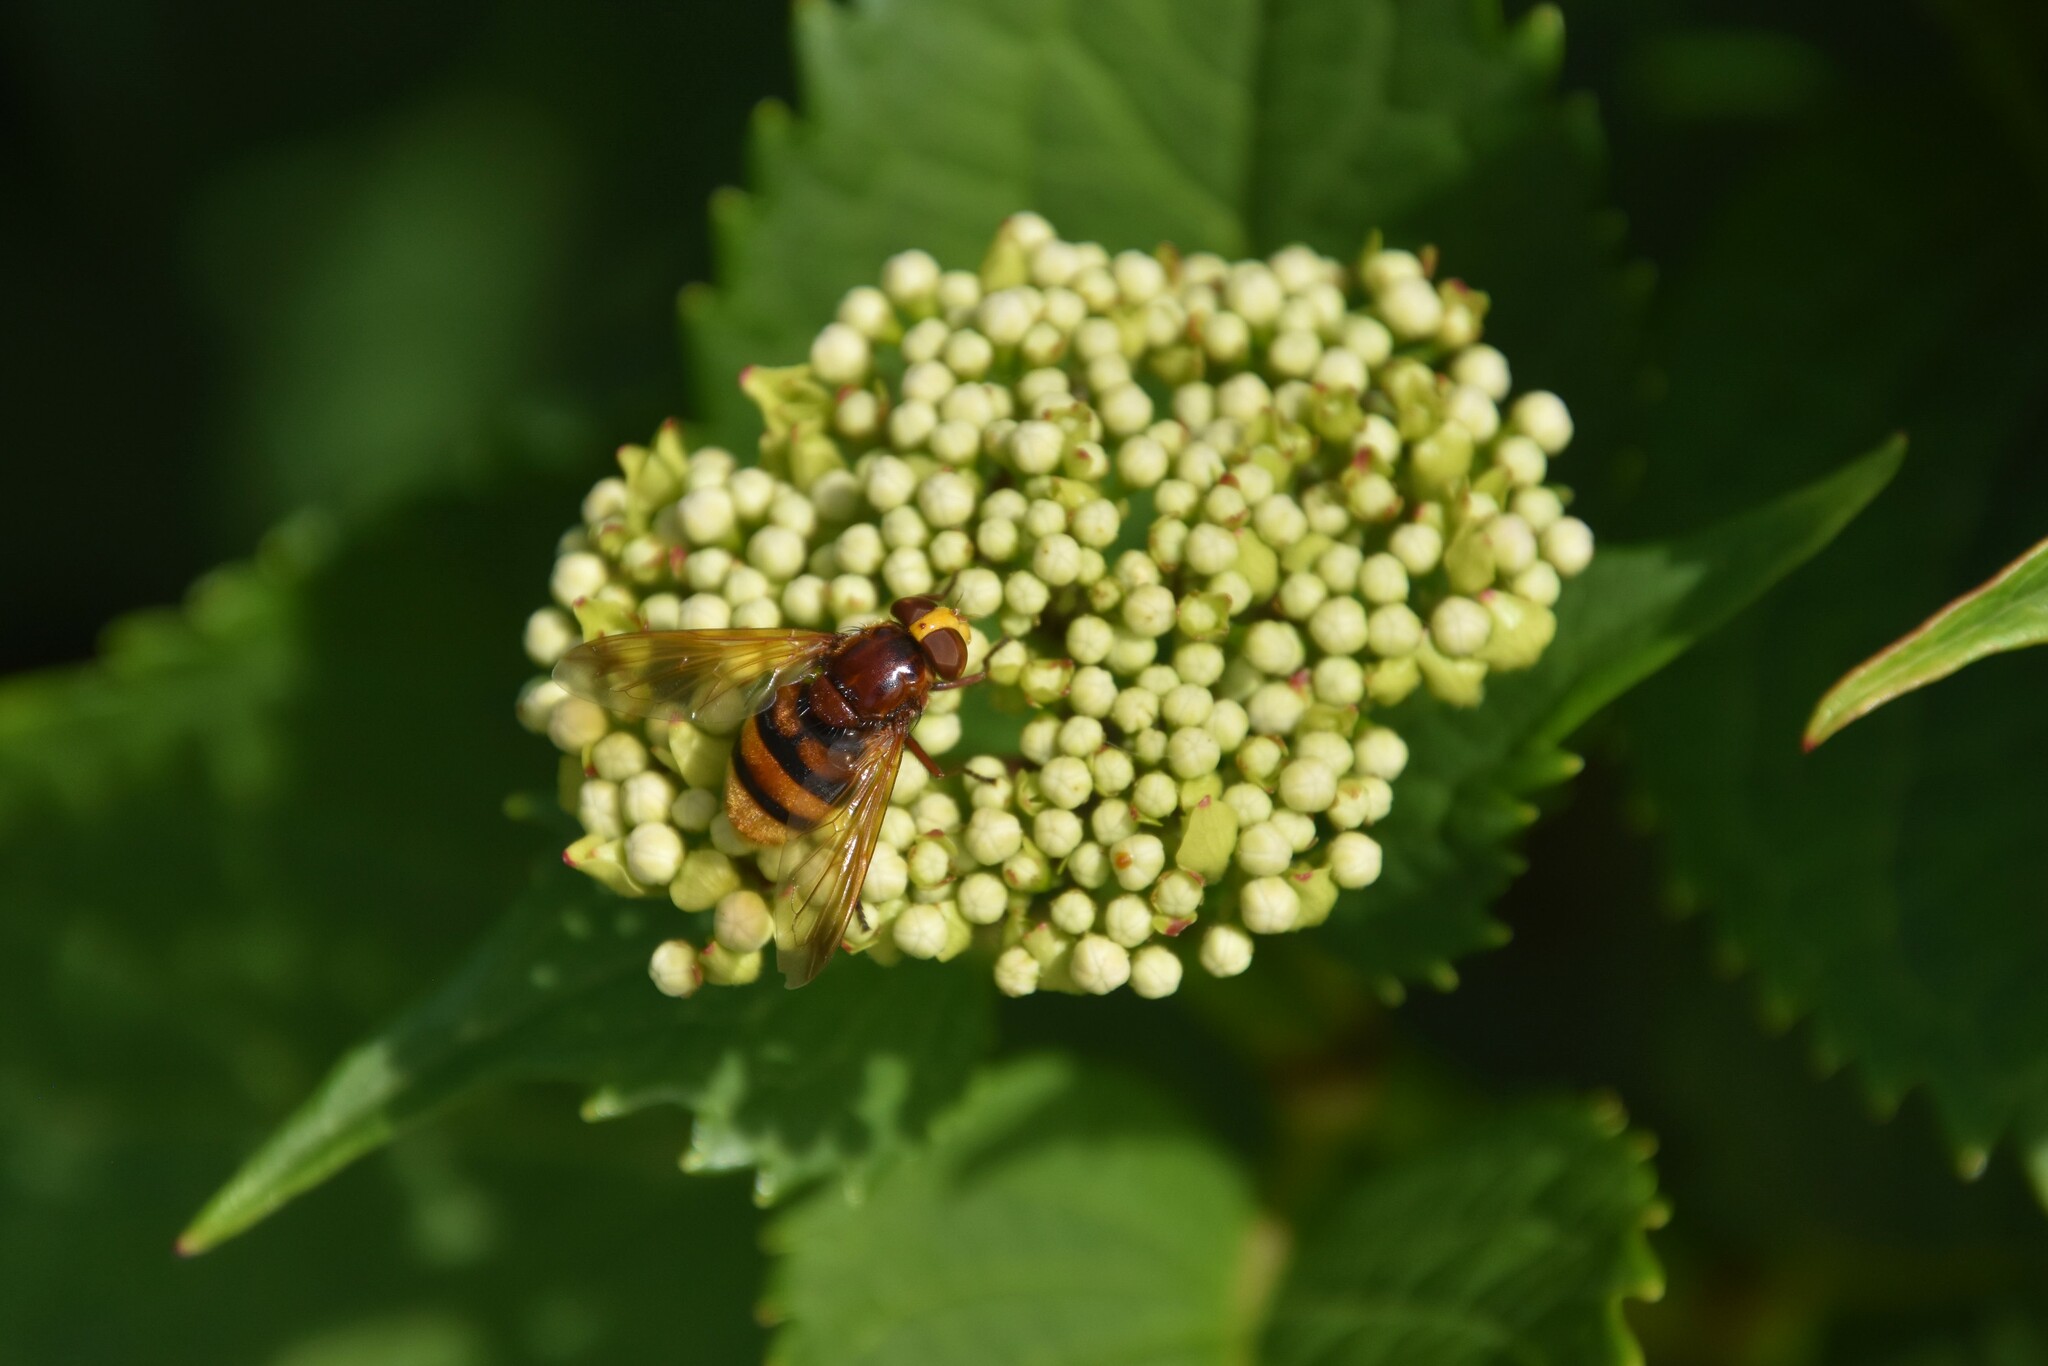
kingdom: Animalia
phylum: Arthropoda
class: Insecta
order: Diptera
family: Syrphidae
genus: Volucella
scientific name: Volucella zonaria
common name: Hornet hoverfly
